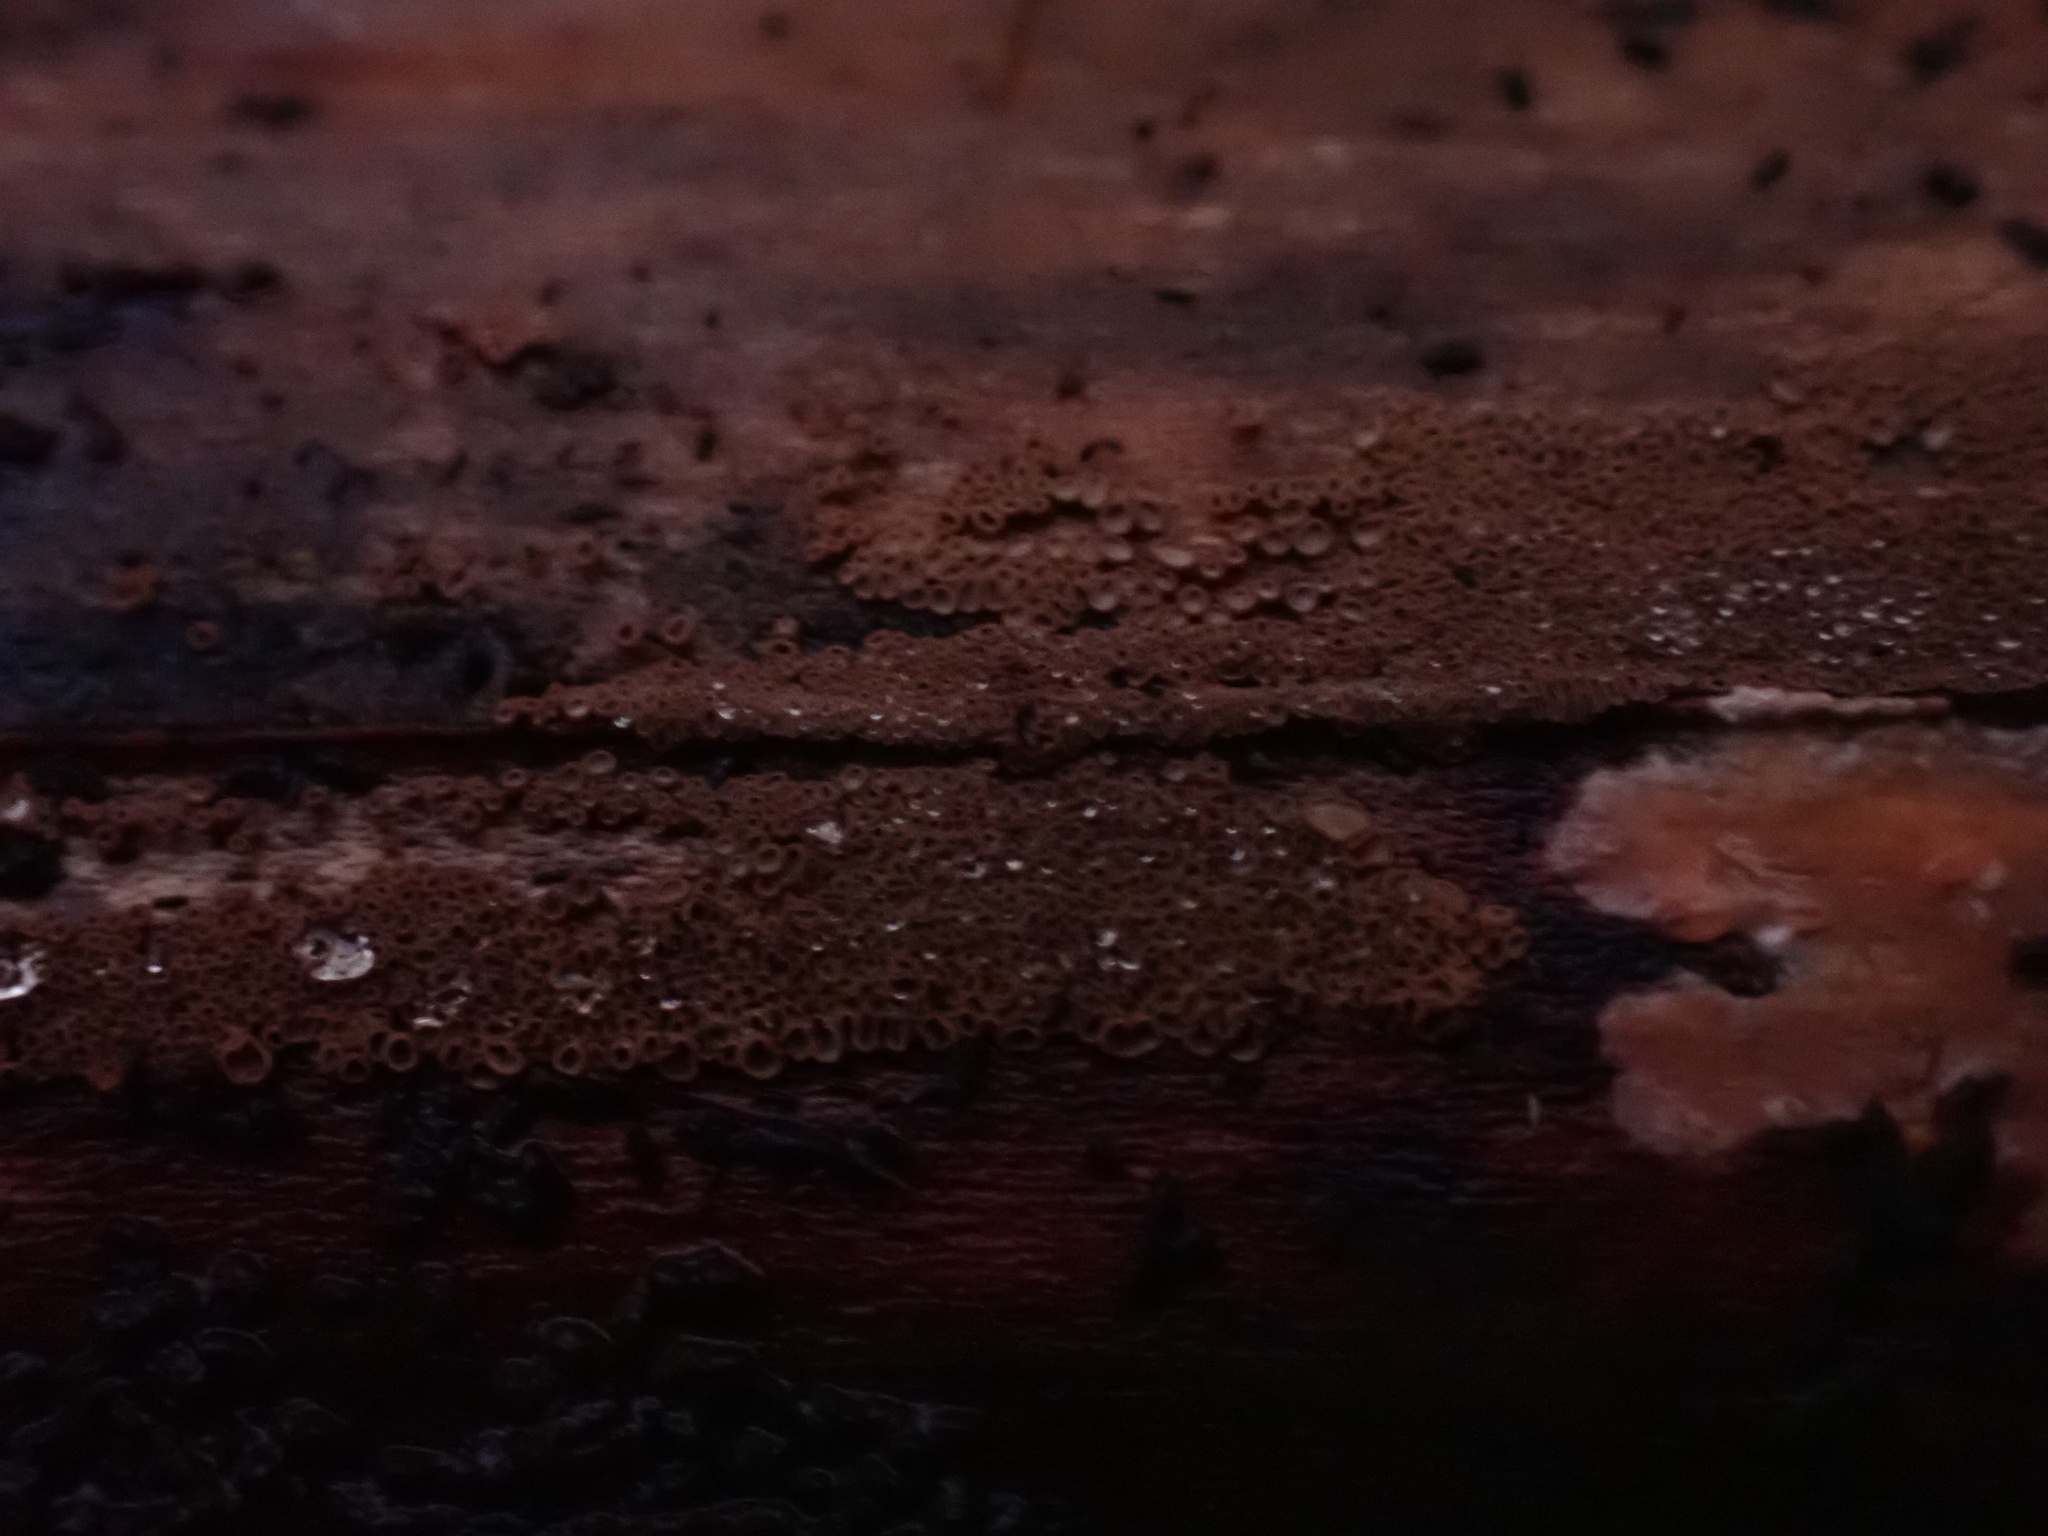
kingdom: Fungi
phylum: Basidiomycota
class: Agaricomycetes
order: Agaricales
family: Niaceae
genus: Merismodes
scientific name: Merismodes fasciculata
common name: Crowded cuplet
